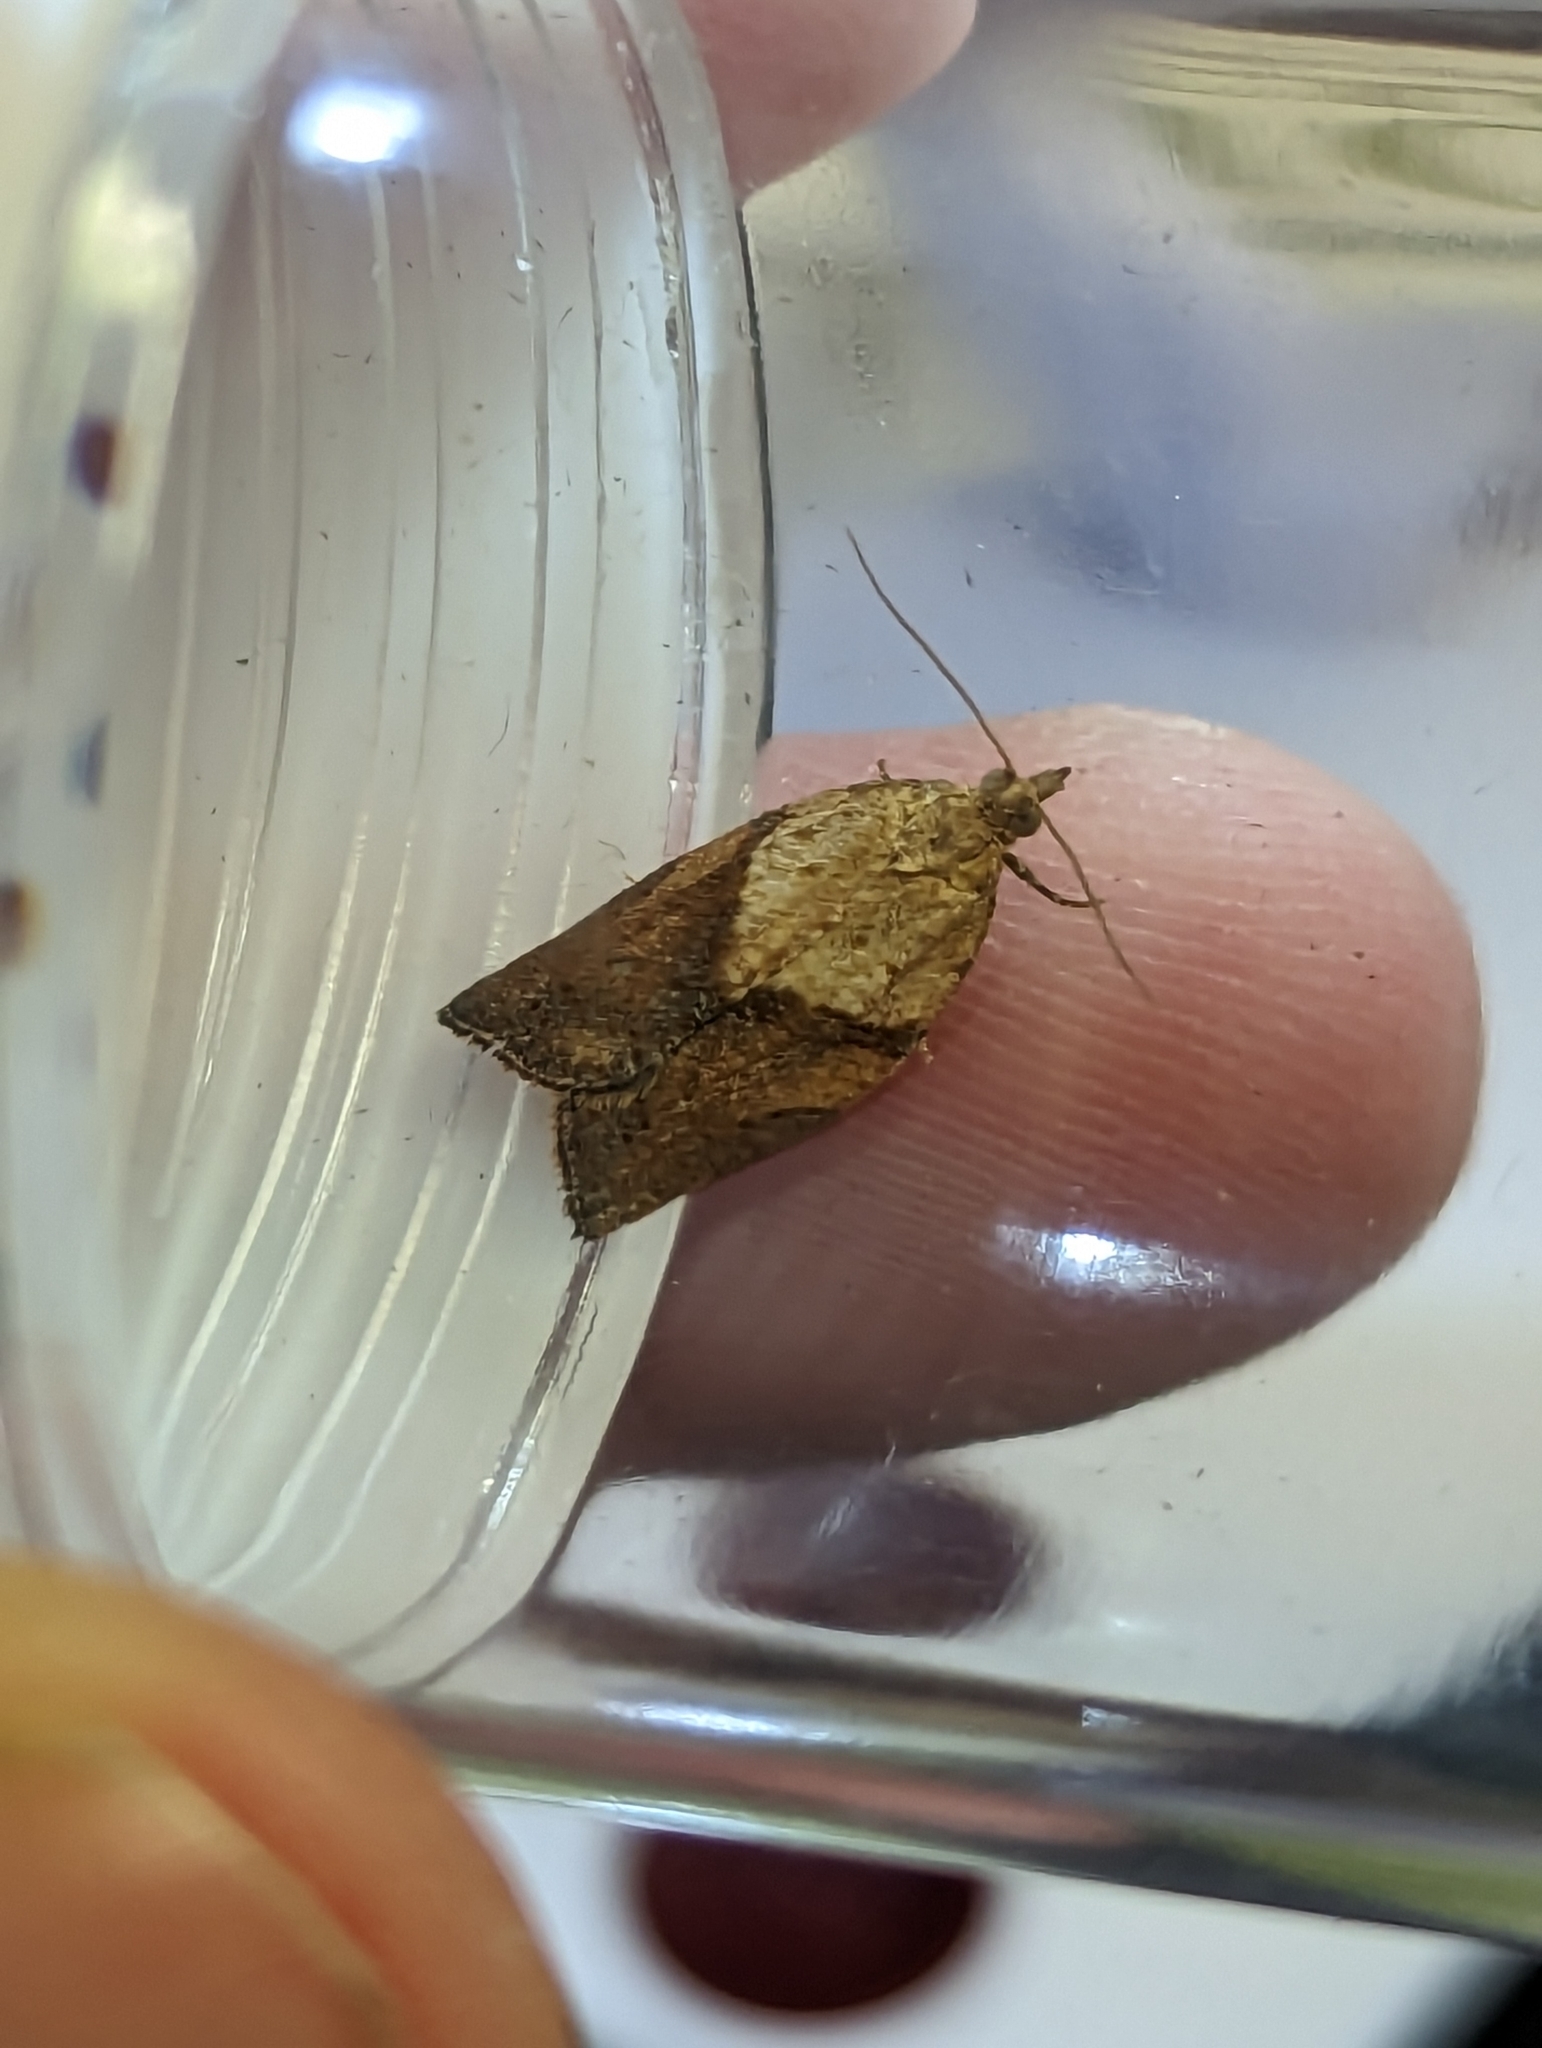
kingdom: Animalia
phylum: Arthropoda
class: Insecta
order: Lepidoptera
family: Tortricidae
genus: Epiphyas
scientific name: Epiphyas postvittana
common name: Light brown apple moth
